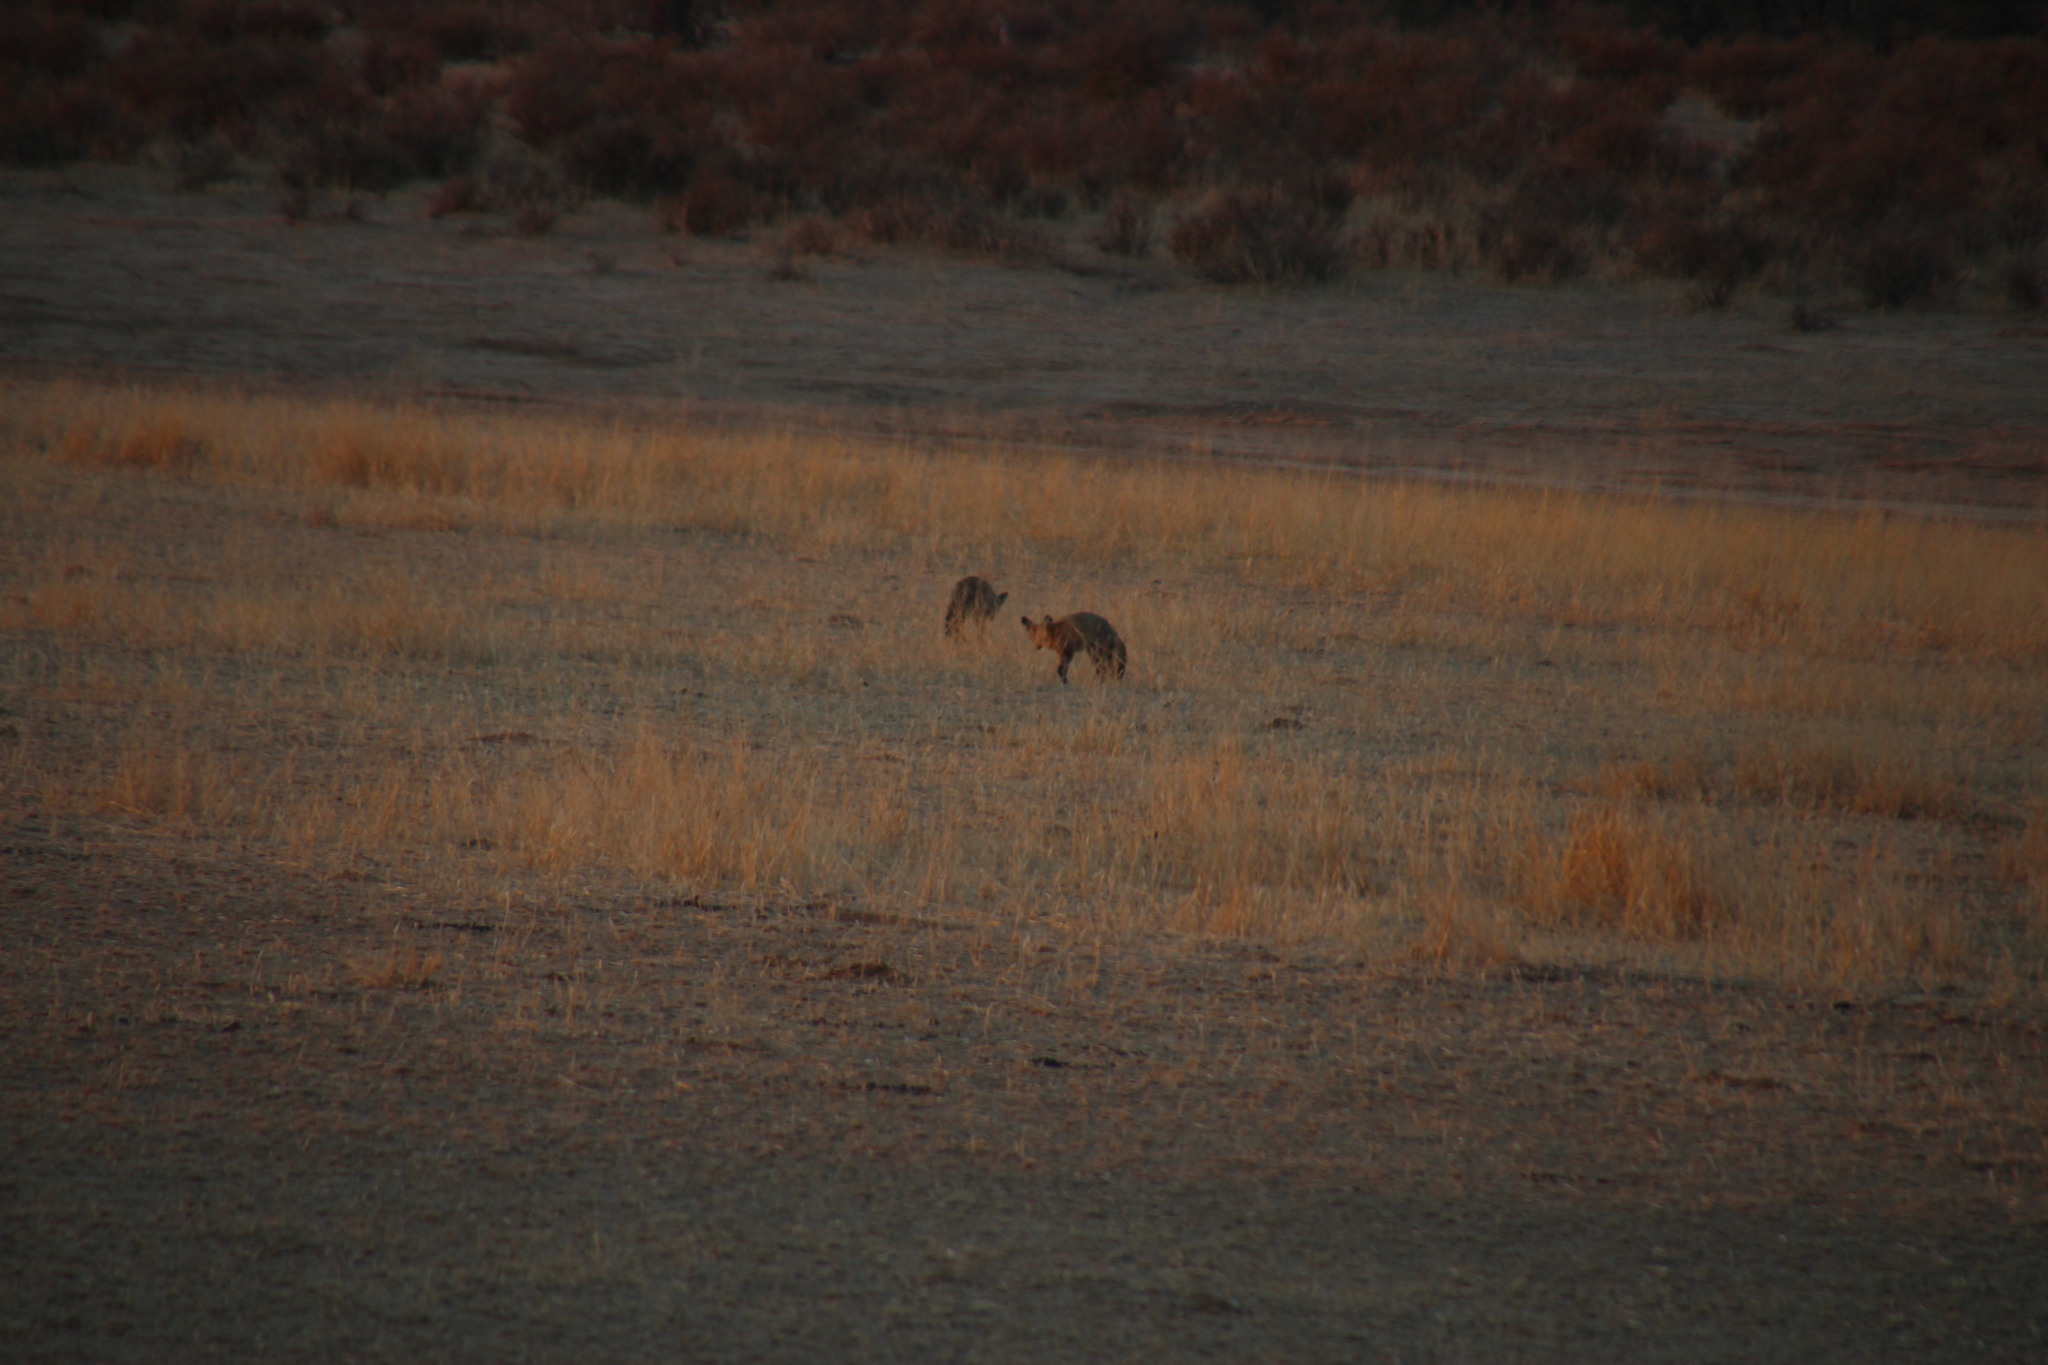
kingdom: Animalia
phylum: Chordata
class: Mammalia
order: Carnivora
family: Canidae
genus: Otocyon
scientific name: Otocyon megalotis
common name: Bat-eared fox
